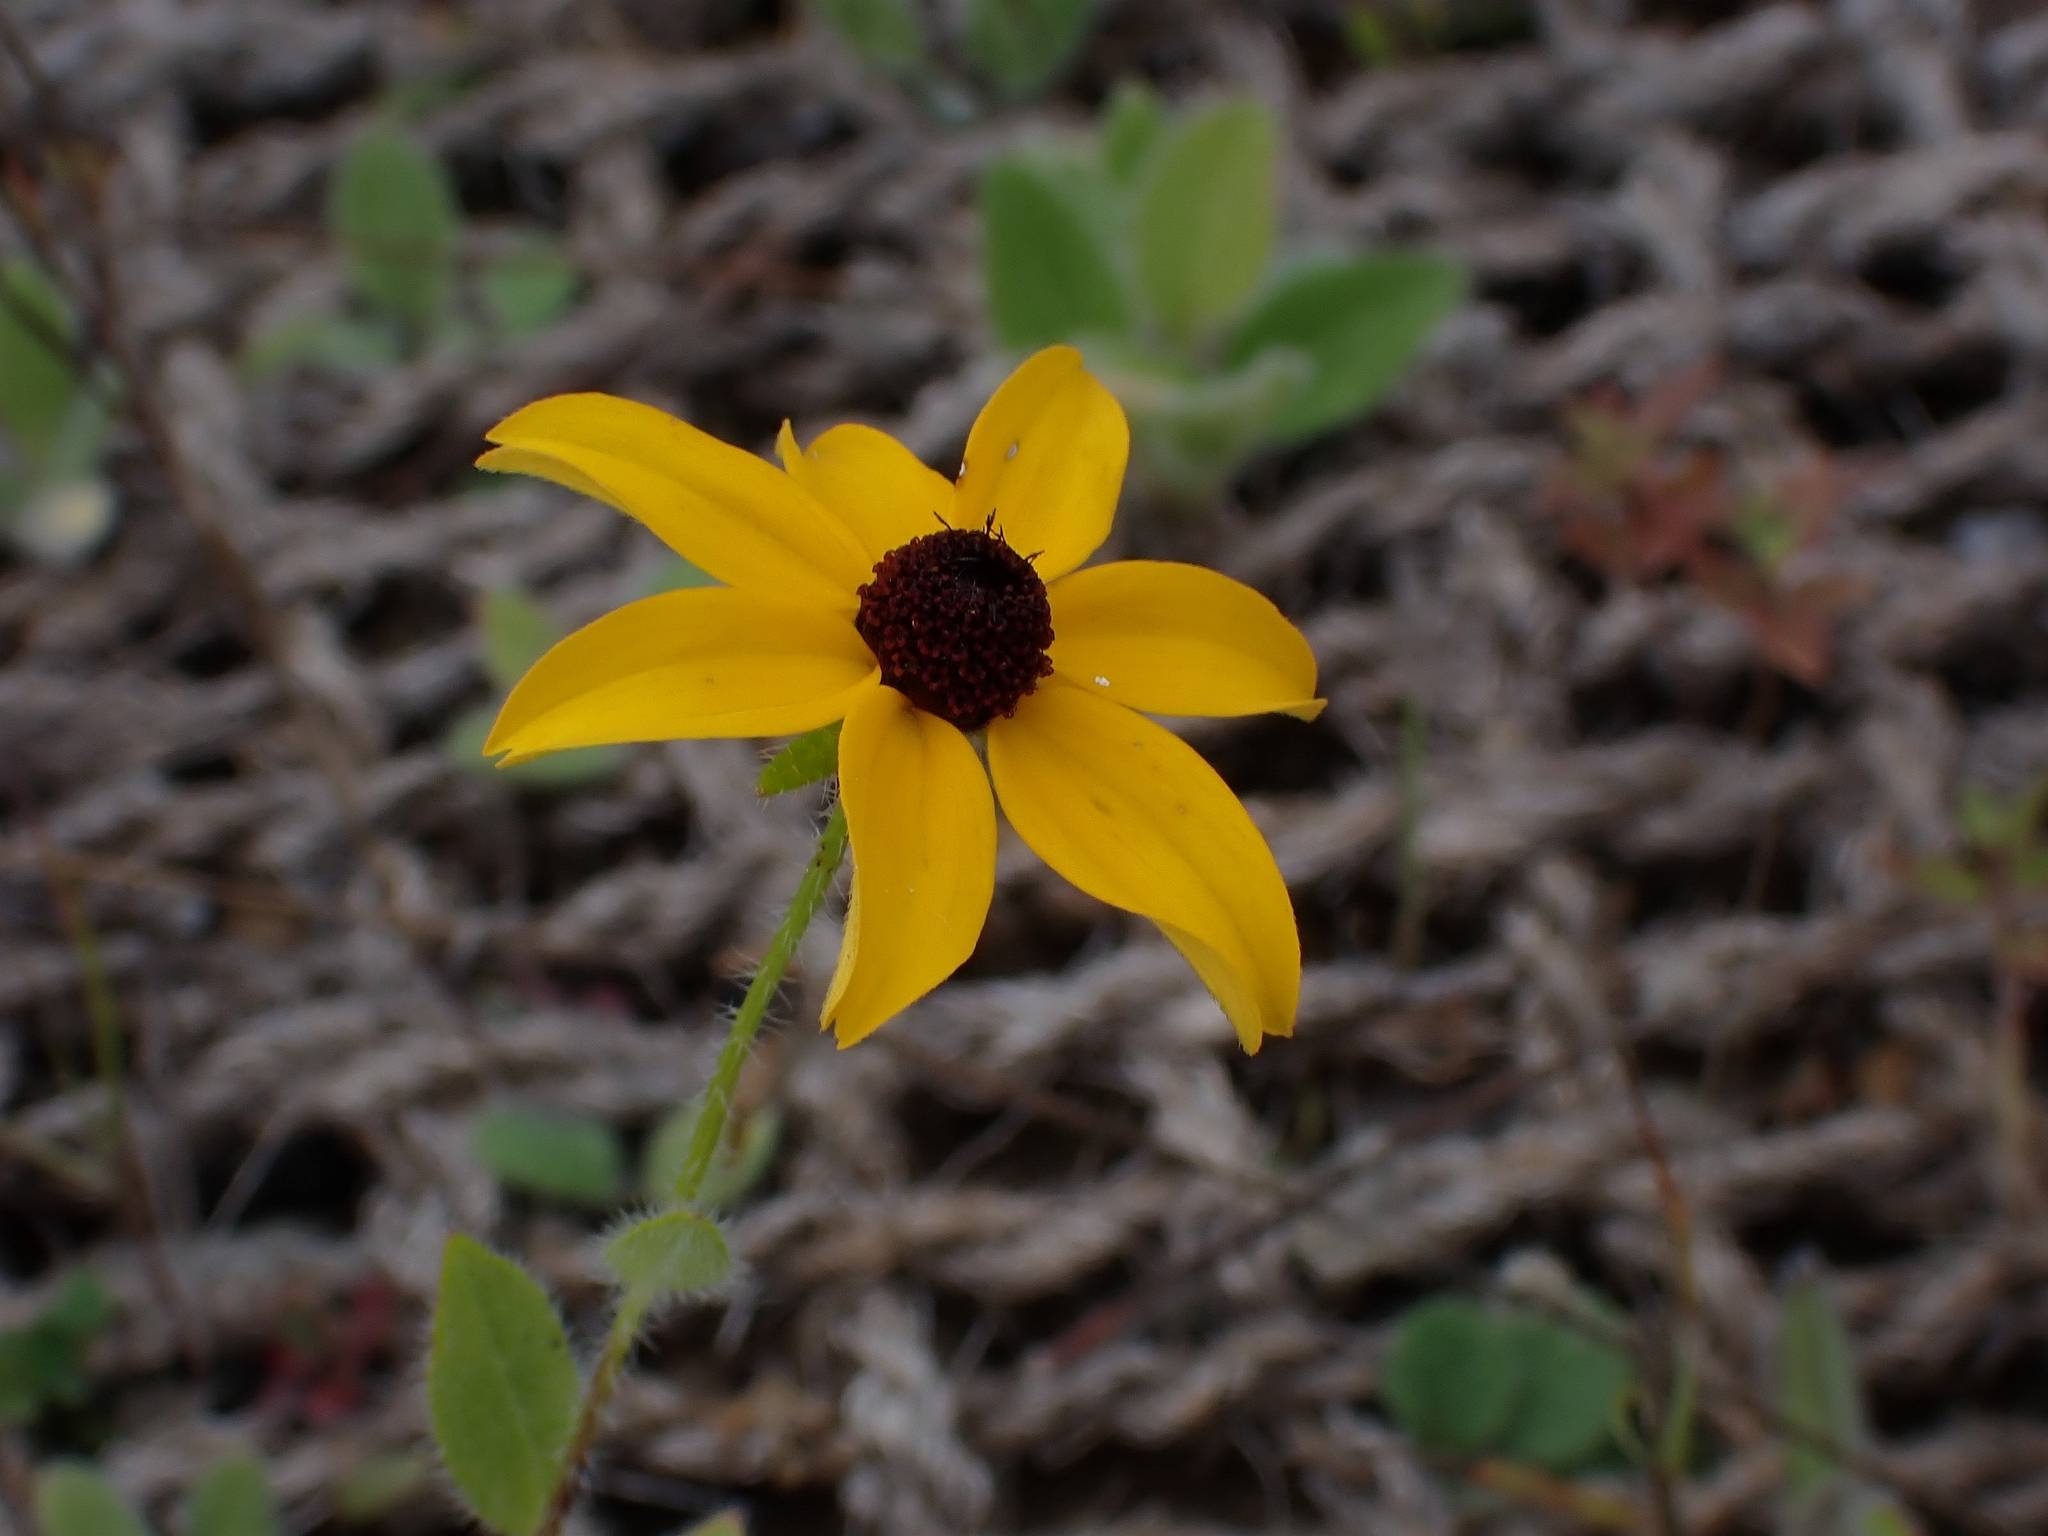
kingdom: Plantae
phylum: Tracheophyta
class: Magnoliopsida
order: Asterales
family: Asteraceae
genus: Rudbeckia
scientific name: Rudbeckia hirta
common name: Black-eyed-susan
